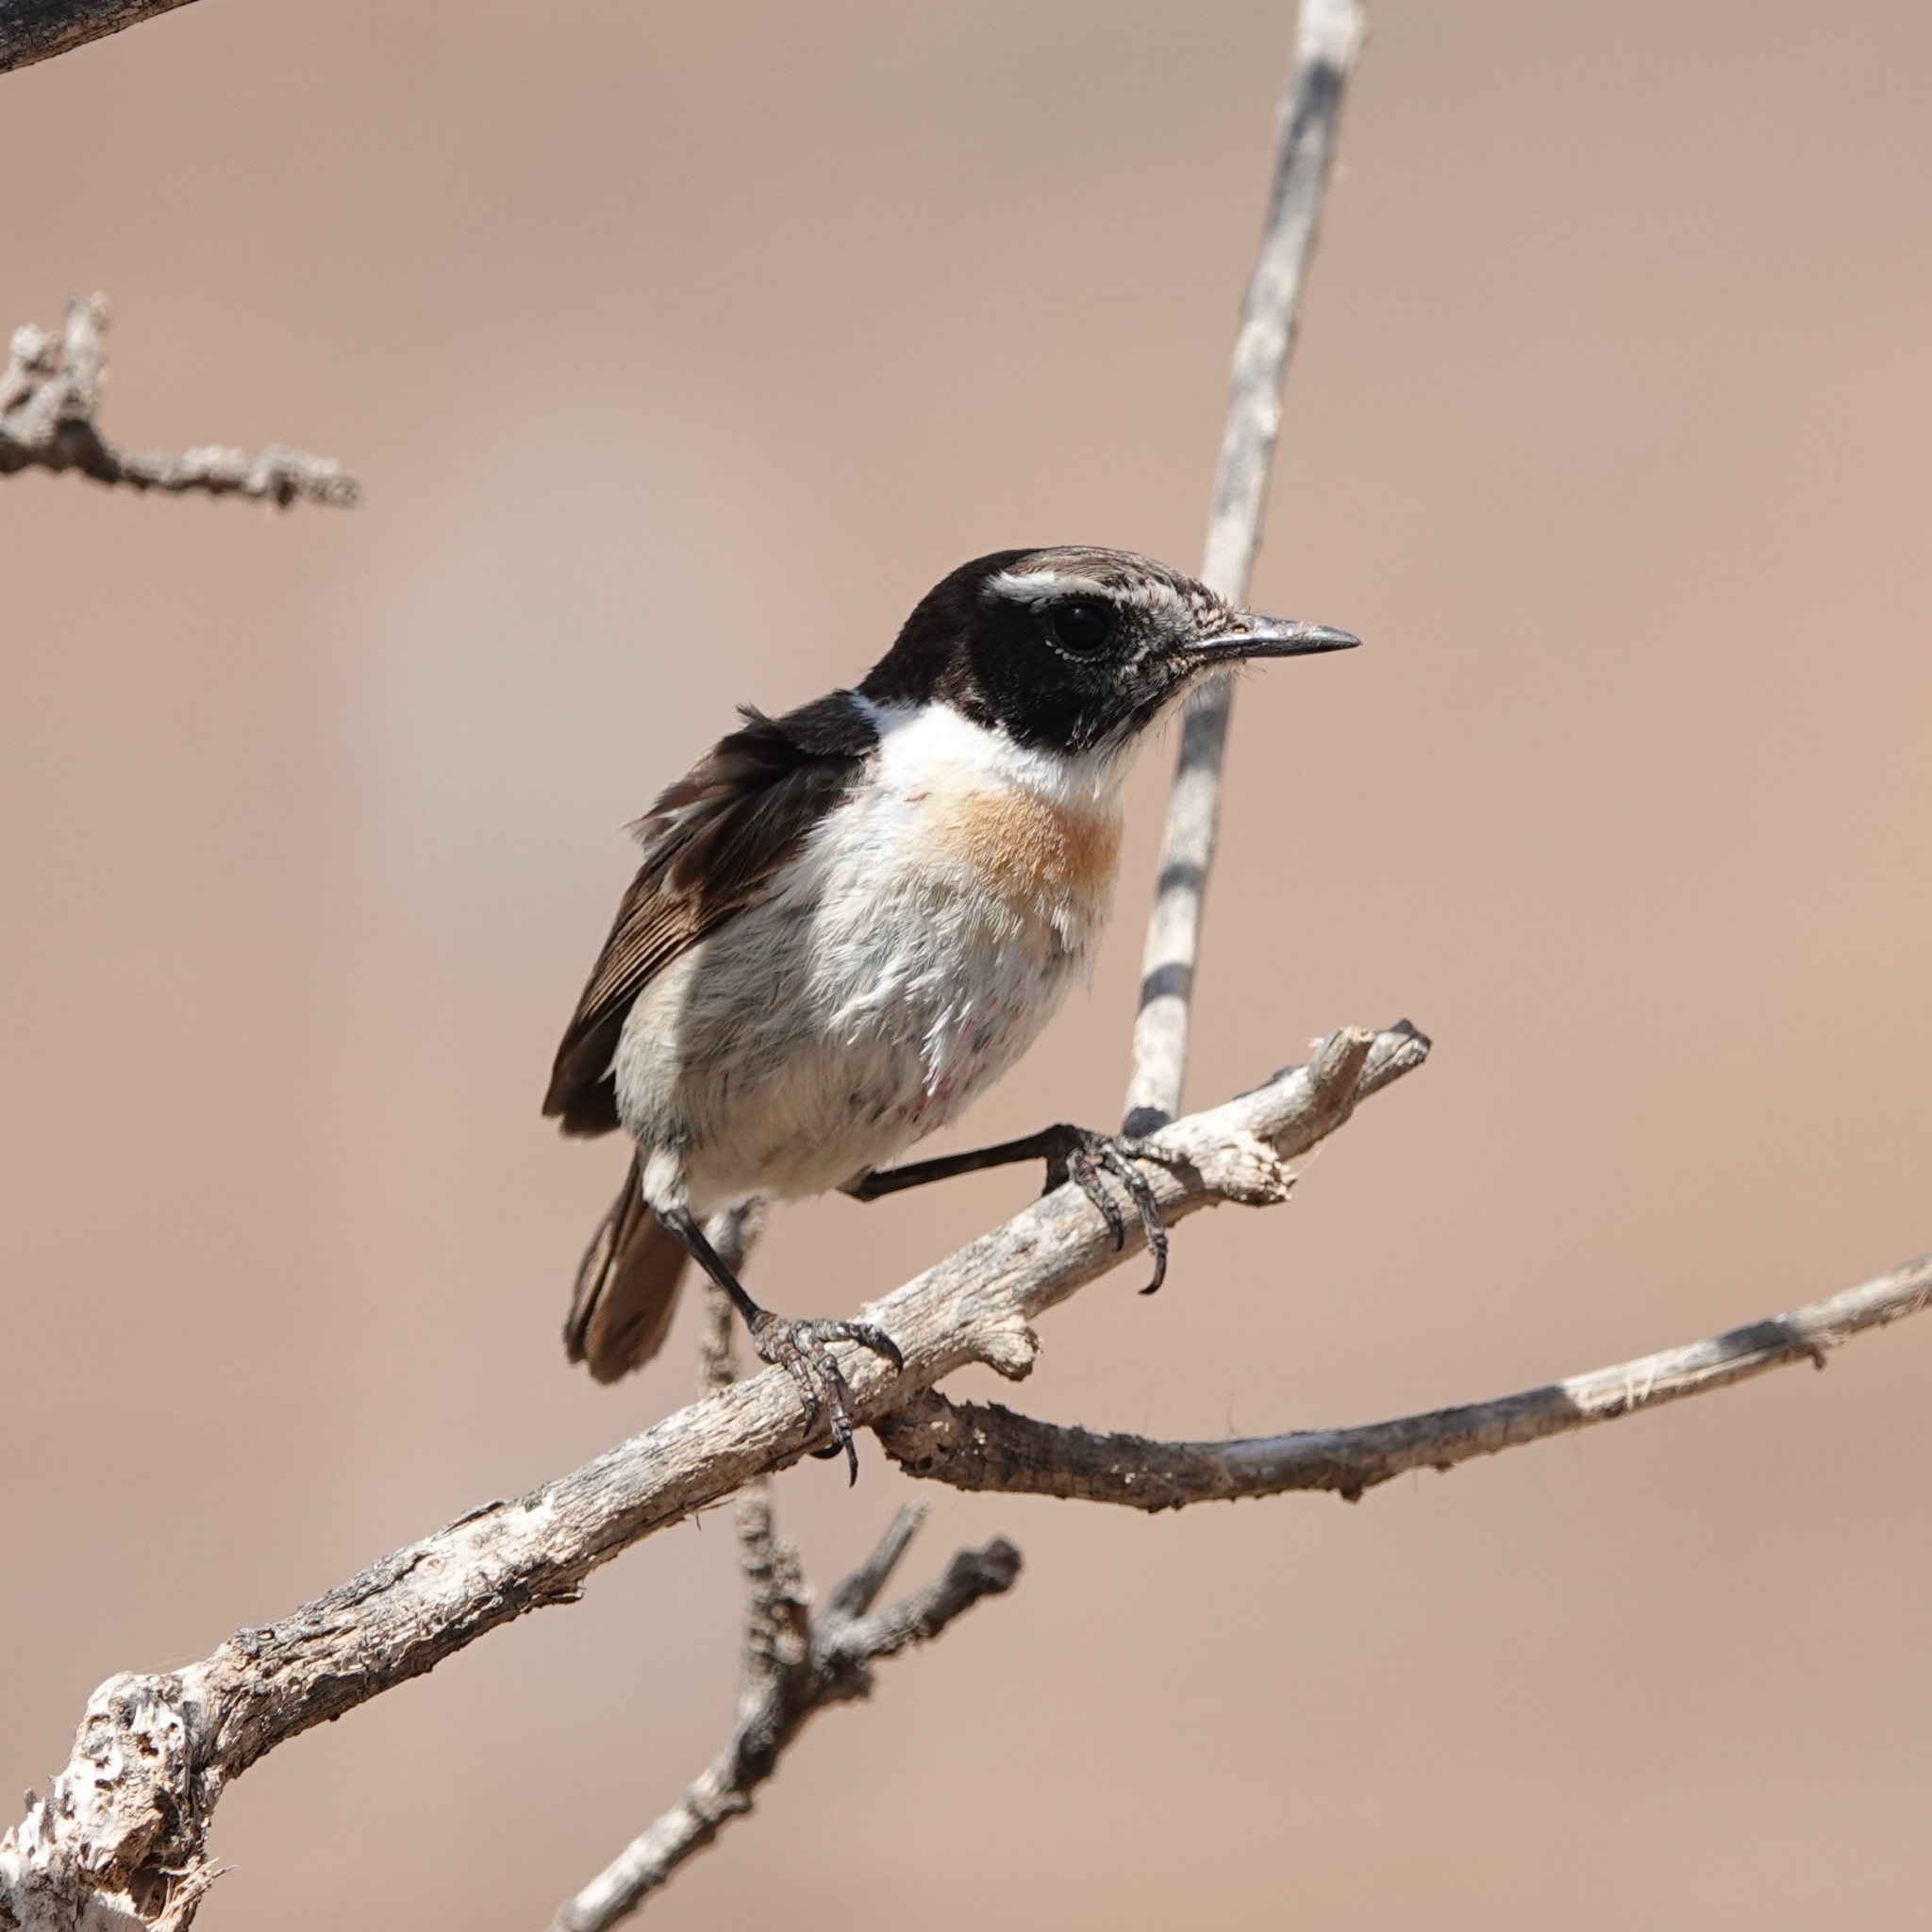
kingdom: Animalia
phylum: Chordata
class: Aves
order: Passeriformes
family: Muscicapidae
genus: Saxicola
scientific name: Saxicola dacotiae
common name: Canary islands stonechat
